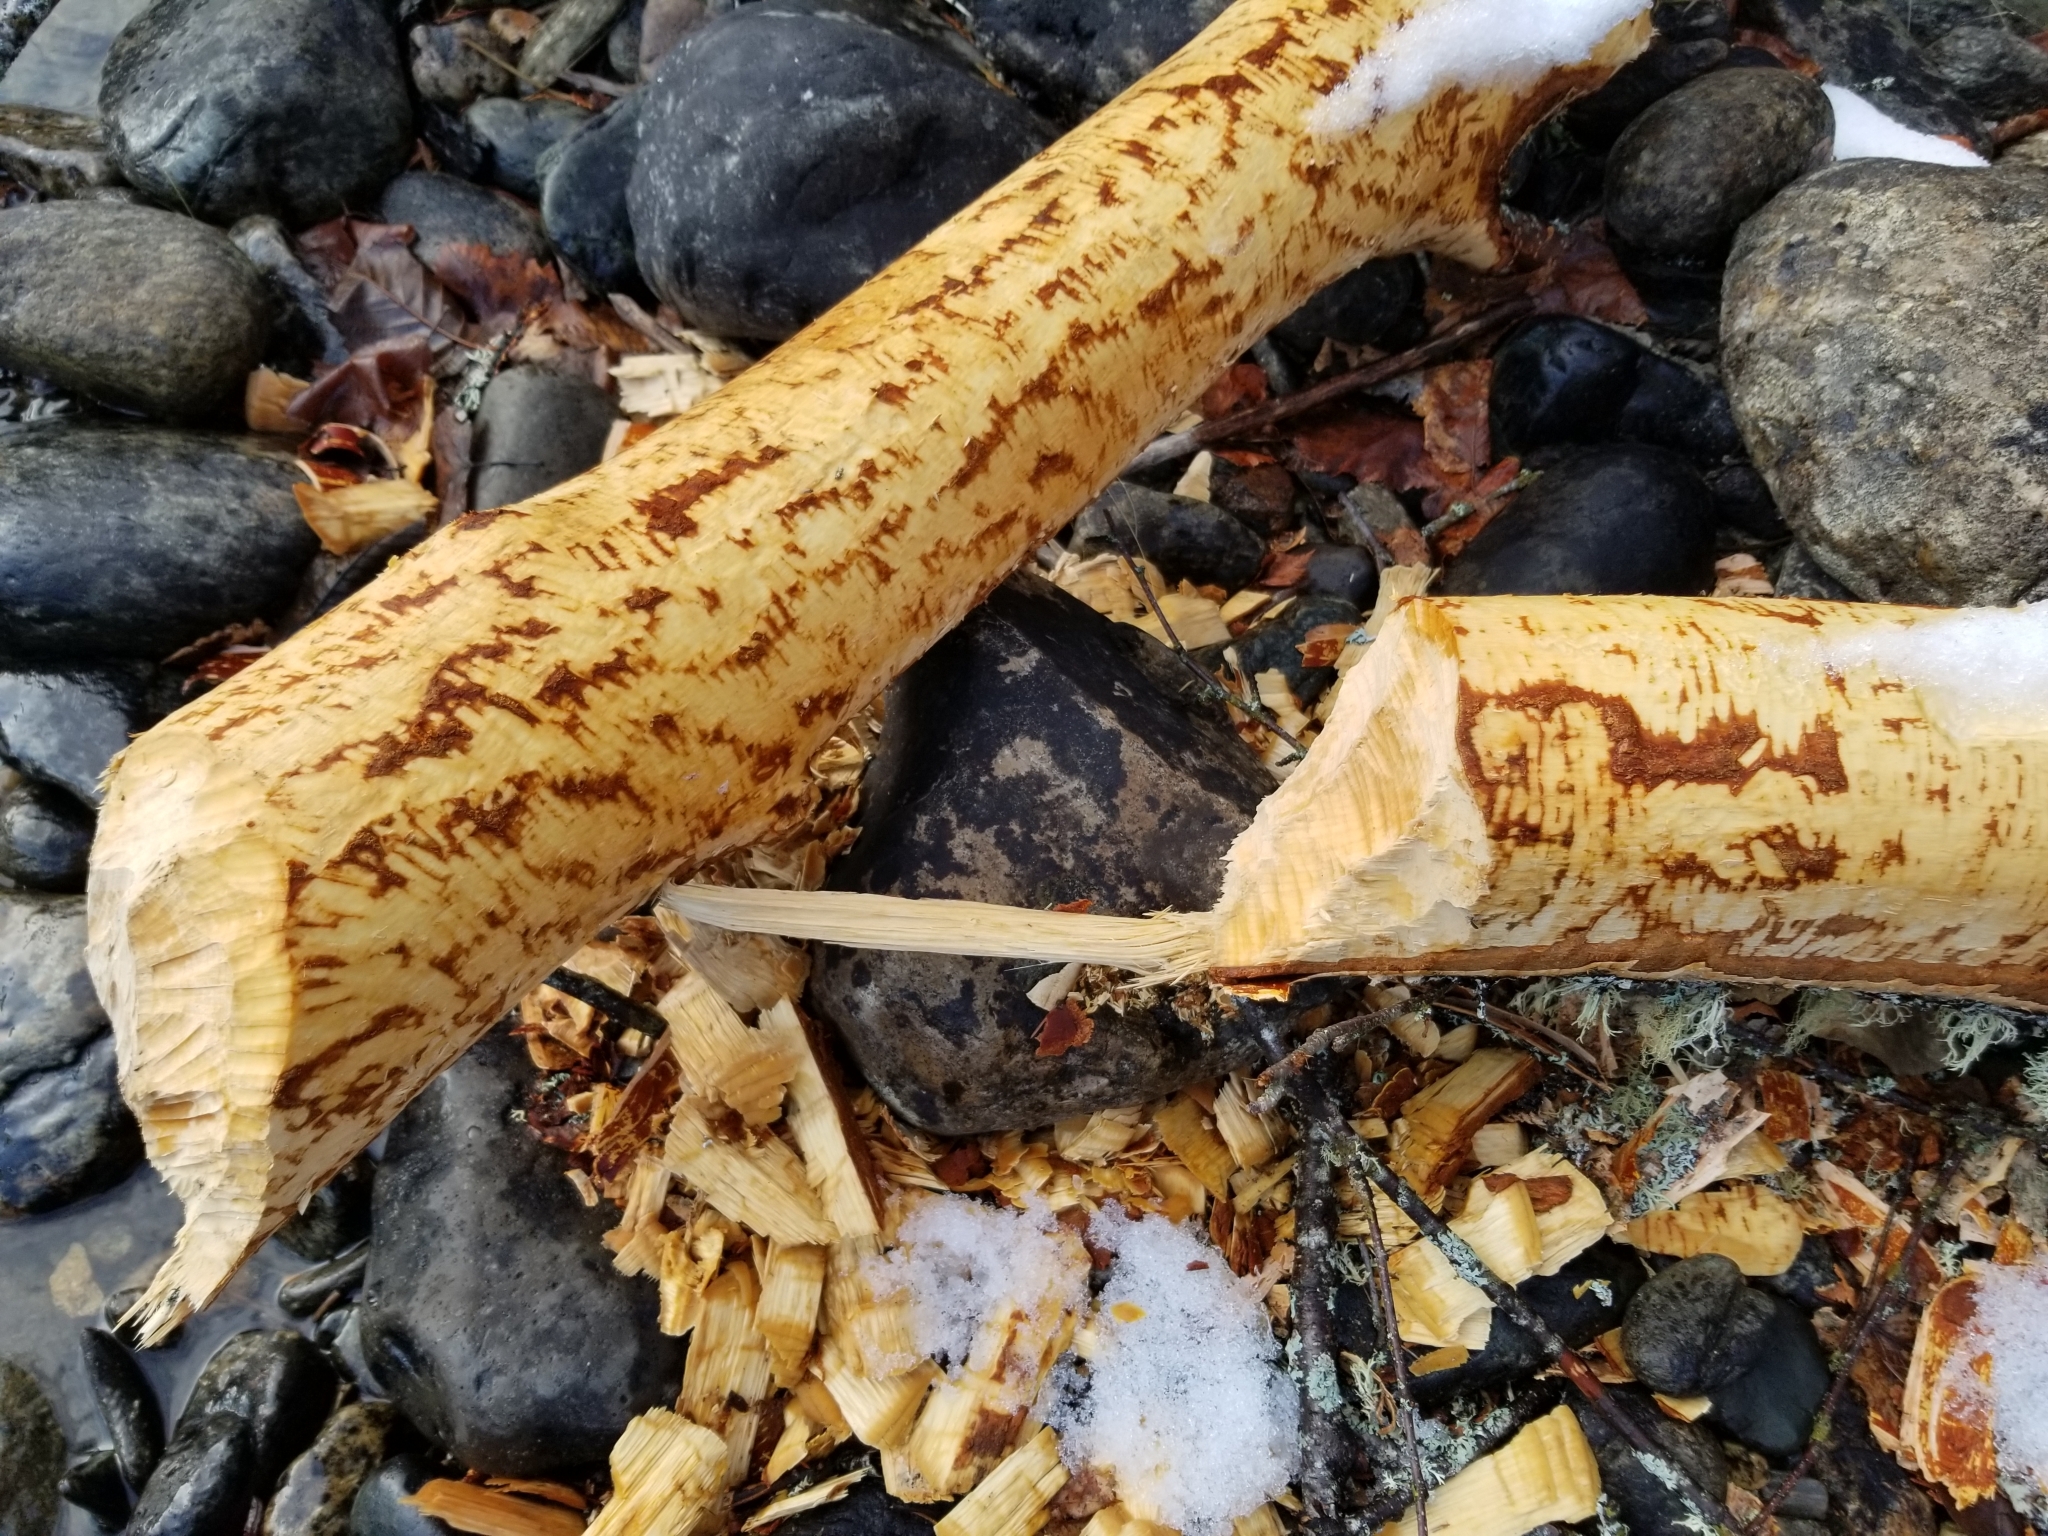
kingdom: Animalia
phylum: Chordata
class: Mammalia
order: Rodentia
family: Castoridae
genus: Castor
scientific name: Castor canadensis
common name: American beaver
